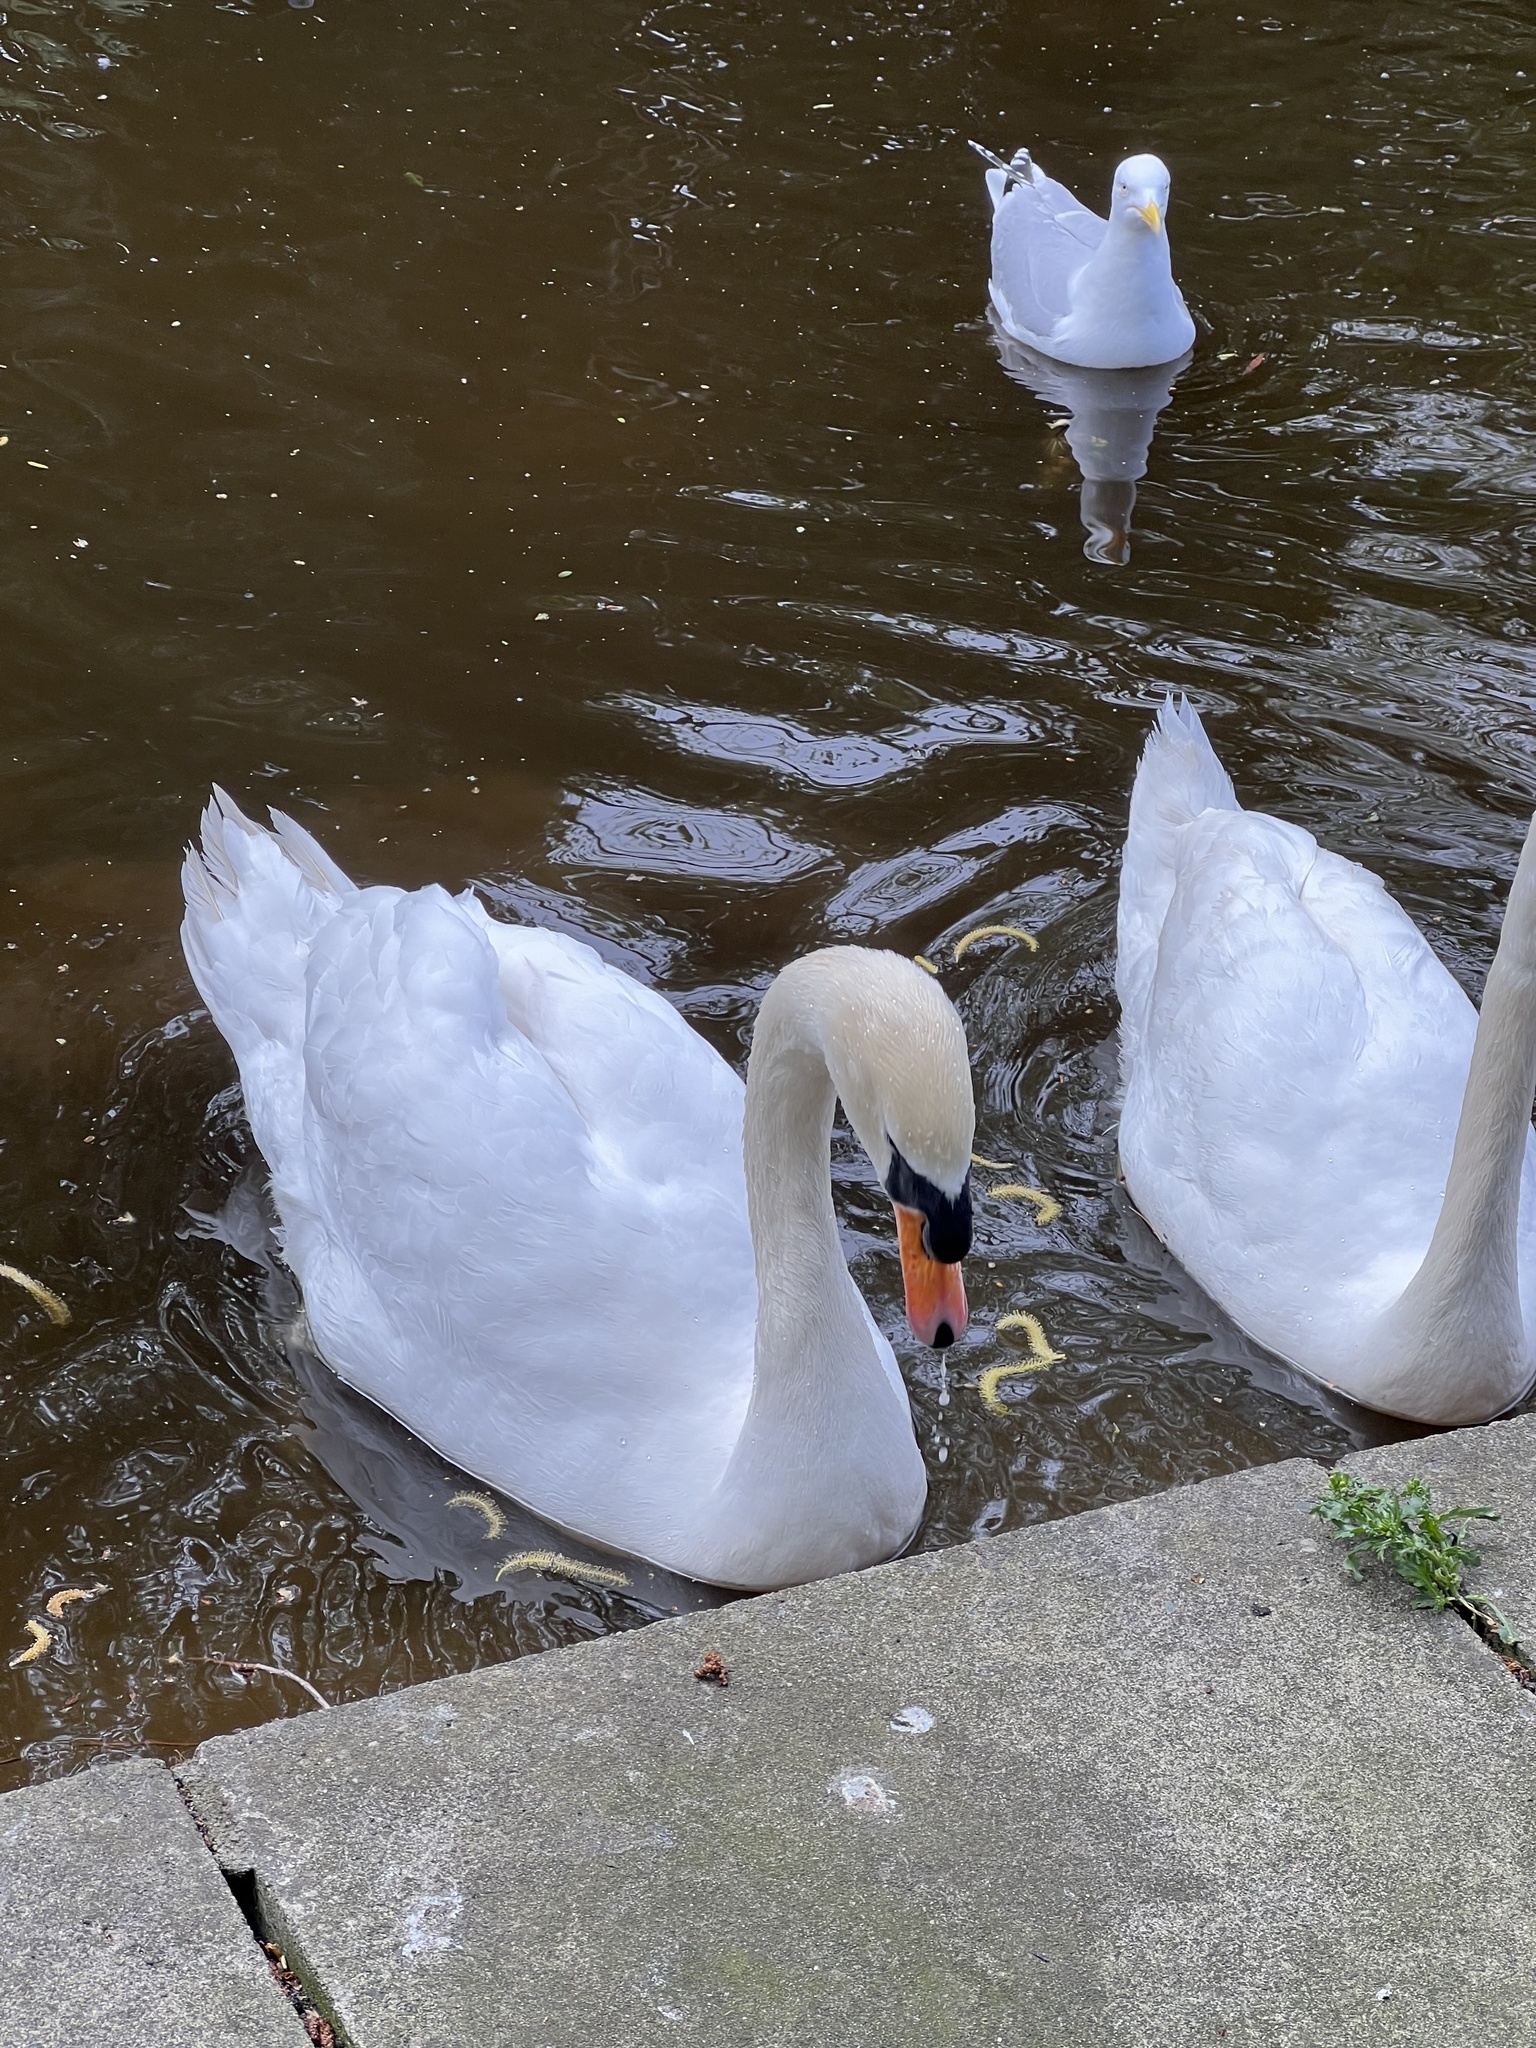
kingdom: Animalia
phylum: Chordata
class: Aves
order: Anseriformes
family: Anatidae
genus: Cygnus
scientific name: Cygnus olor
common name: Mute swan
